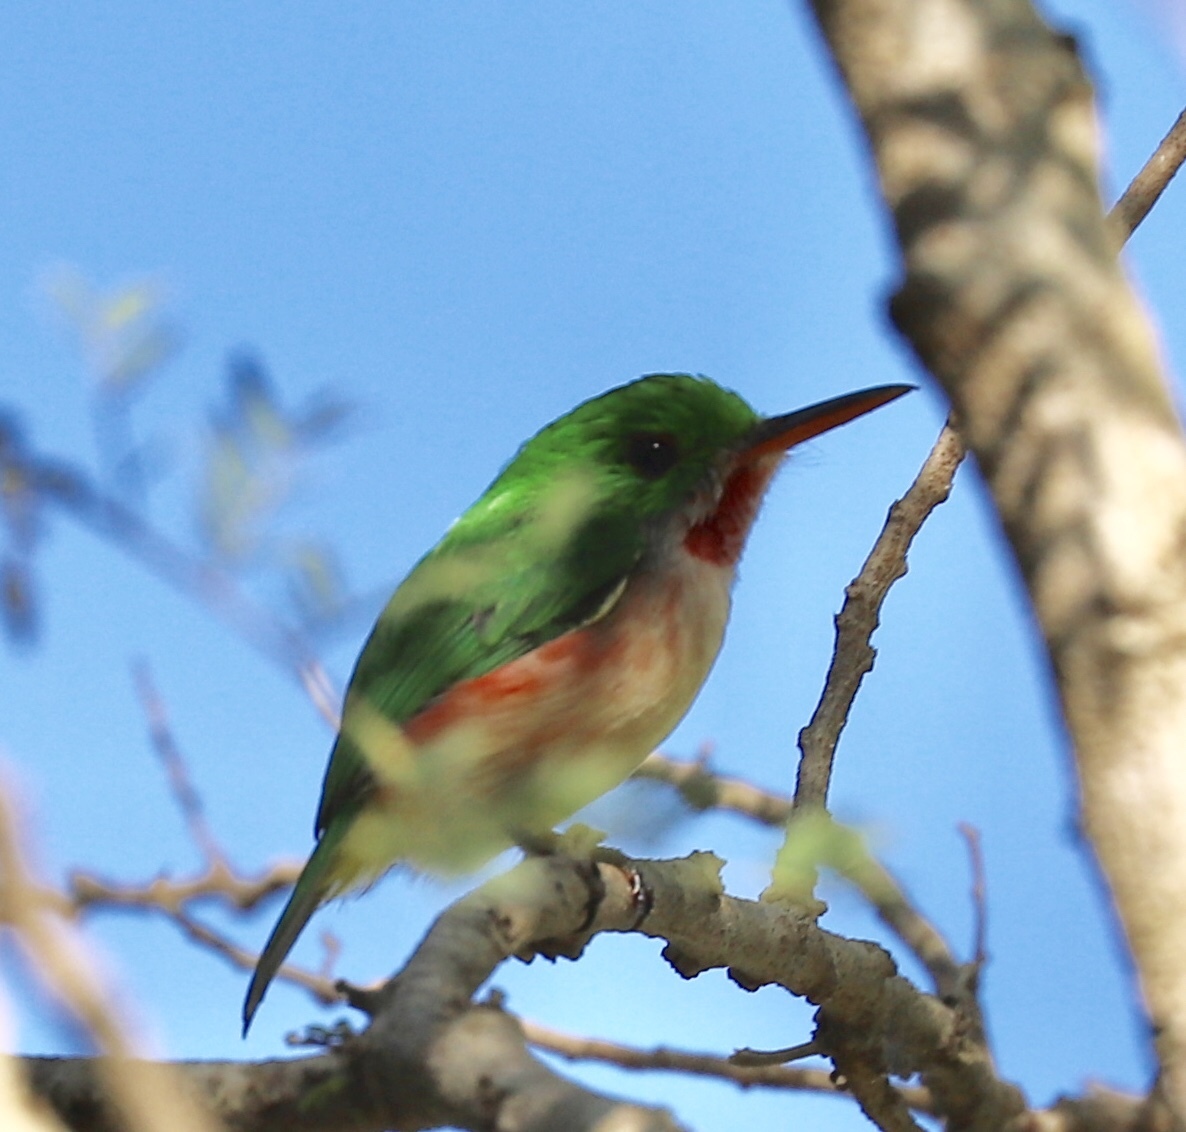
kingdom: Animalia
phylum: Chordata
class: Aves
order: Coraciiformes
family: Todidae
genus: Todus
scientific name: Todus subulatus
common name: Broad-billed tody
